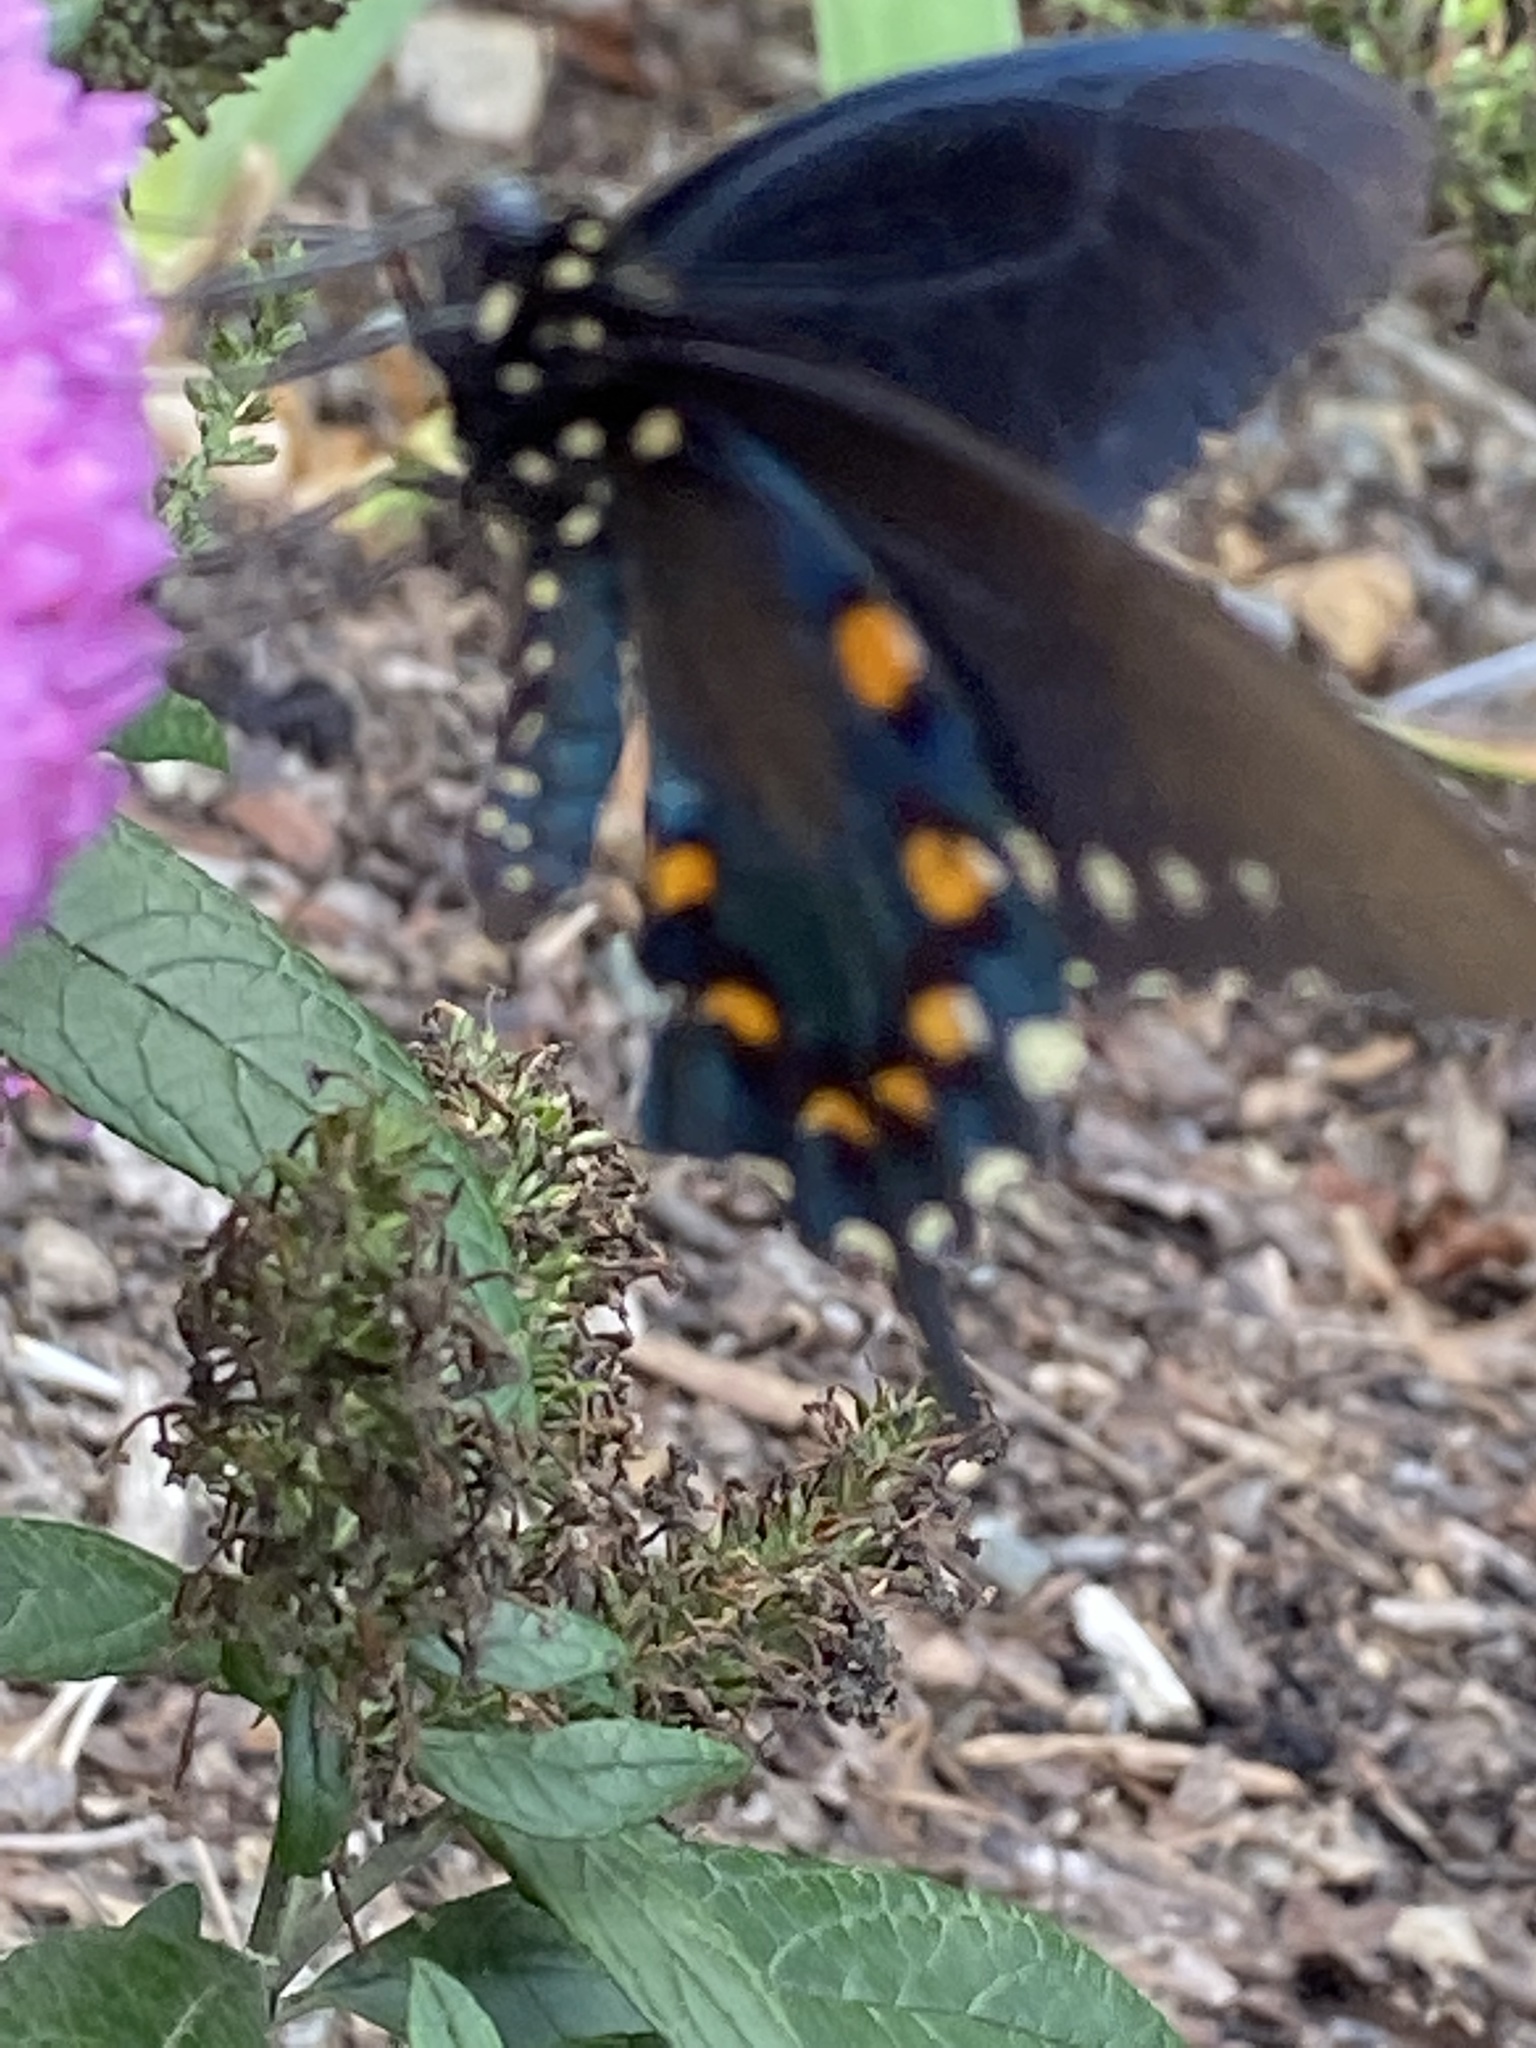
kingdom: Animalia
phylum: Arthropoda
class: Insecta
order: Lepidoptera
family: Papilionidae
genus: Battus
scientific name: Battus philenor
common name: Pipevine swallowtail
